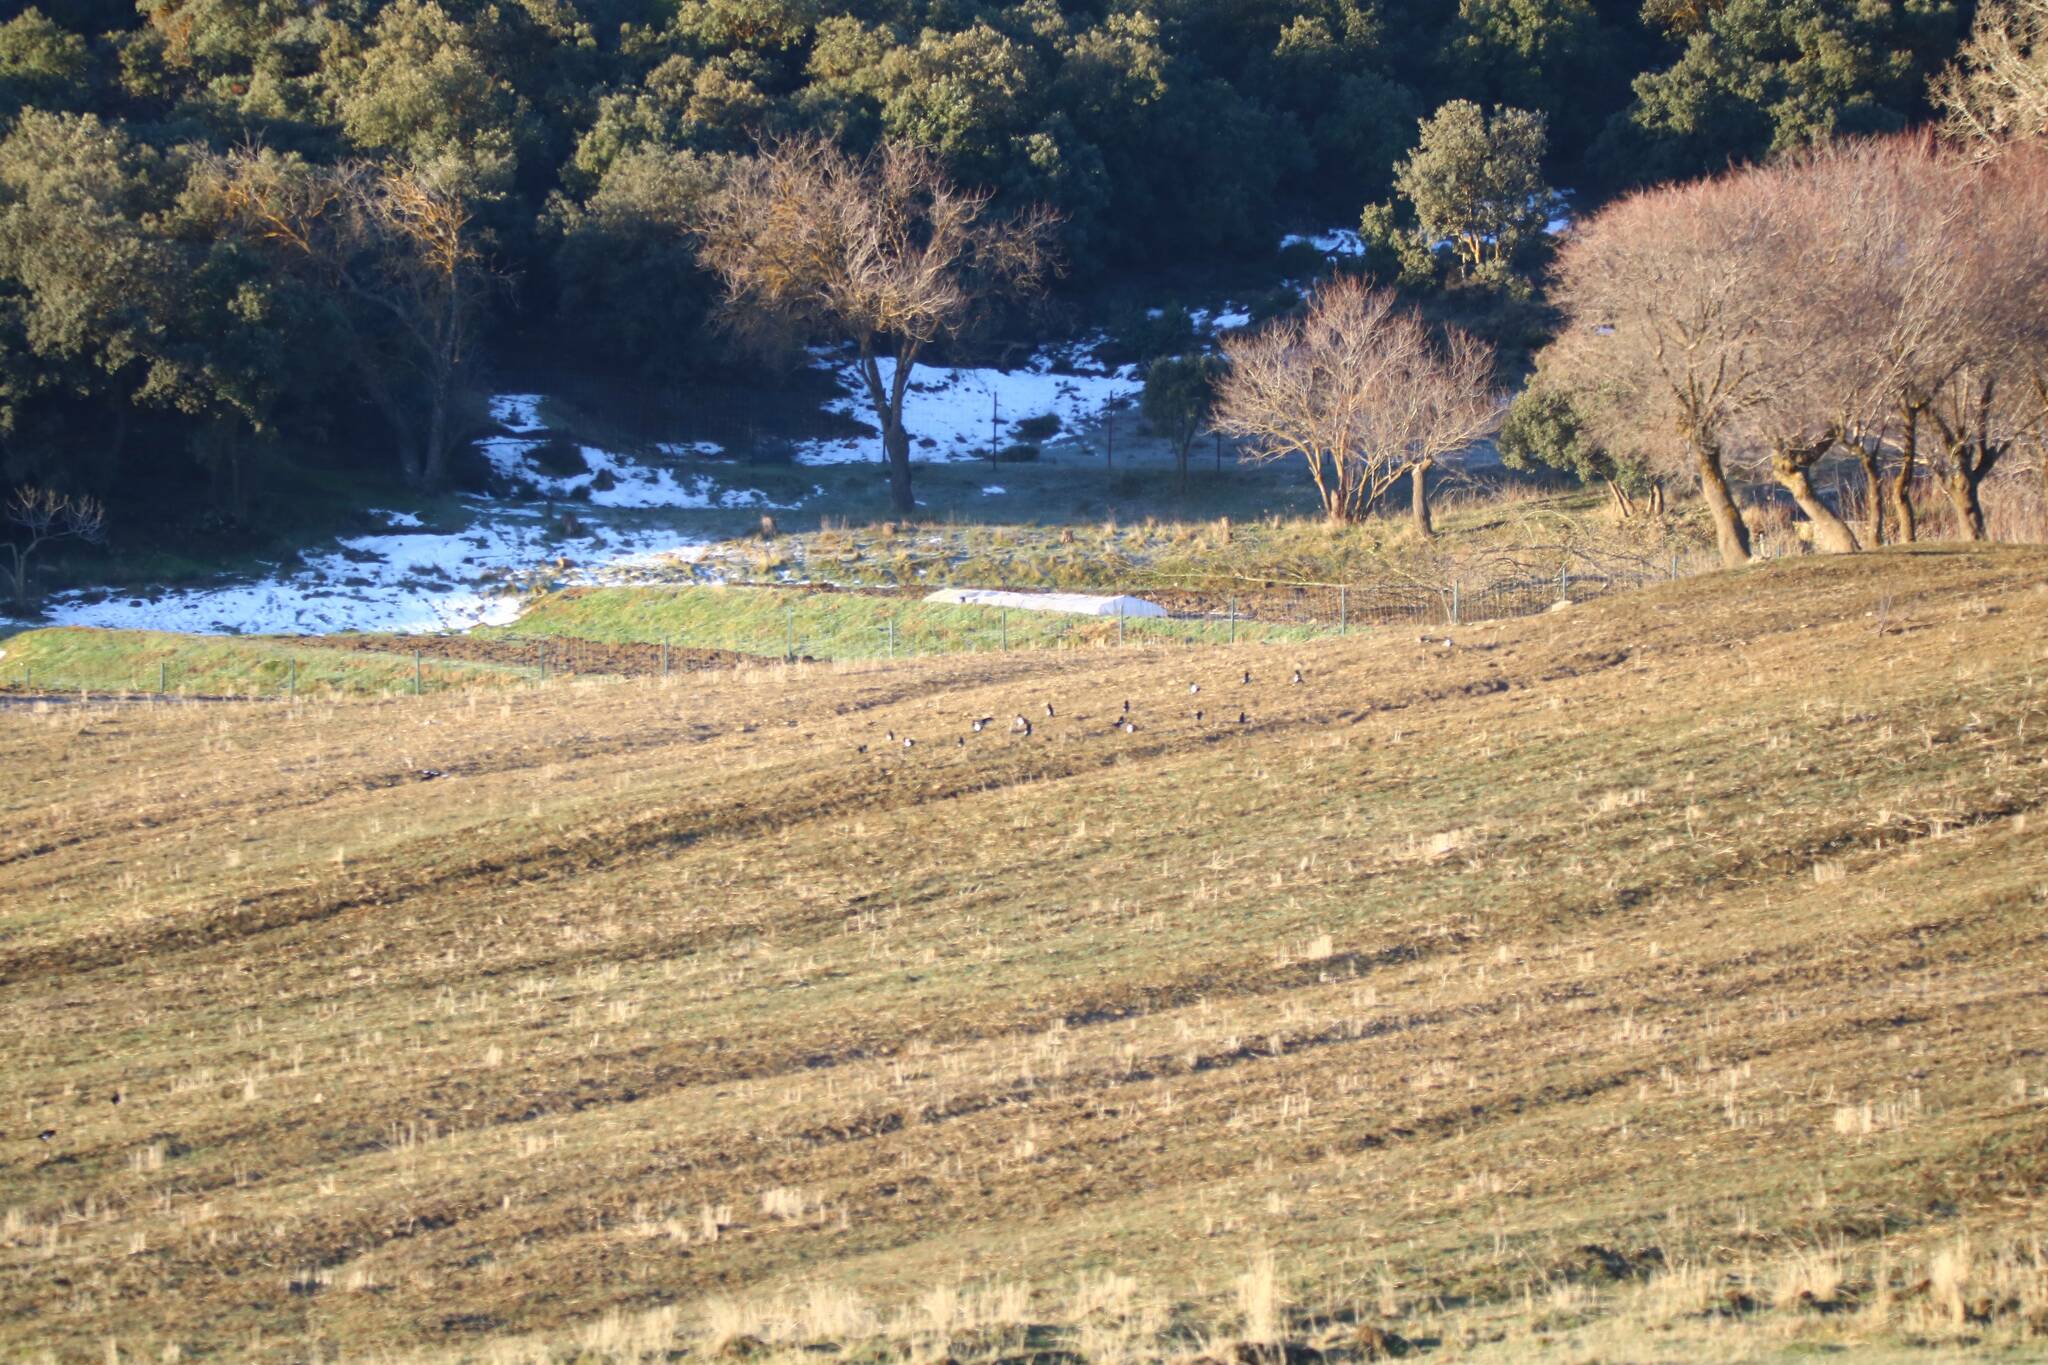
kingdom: Animalia
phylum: Chordata
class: Aves
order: Passeriformes
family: Corvidae
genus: Pica
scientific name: Pica mauritanica
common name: Maghreb magpie
